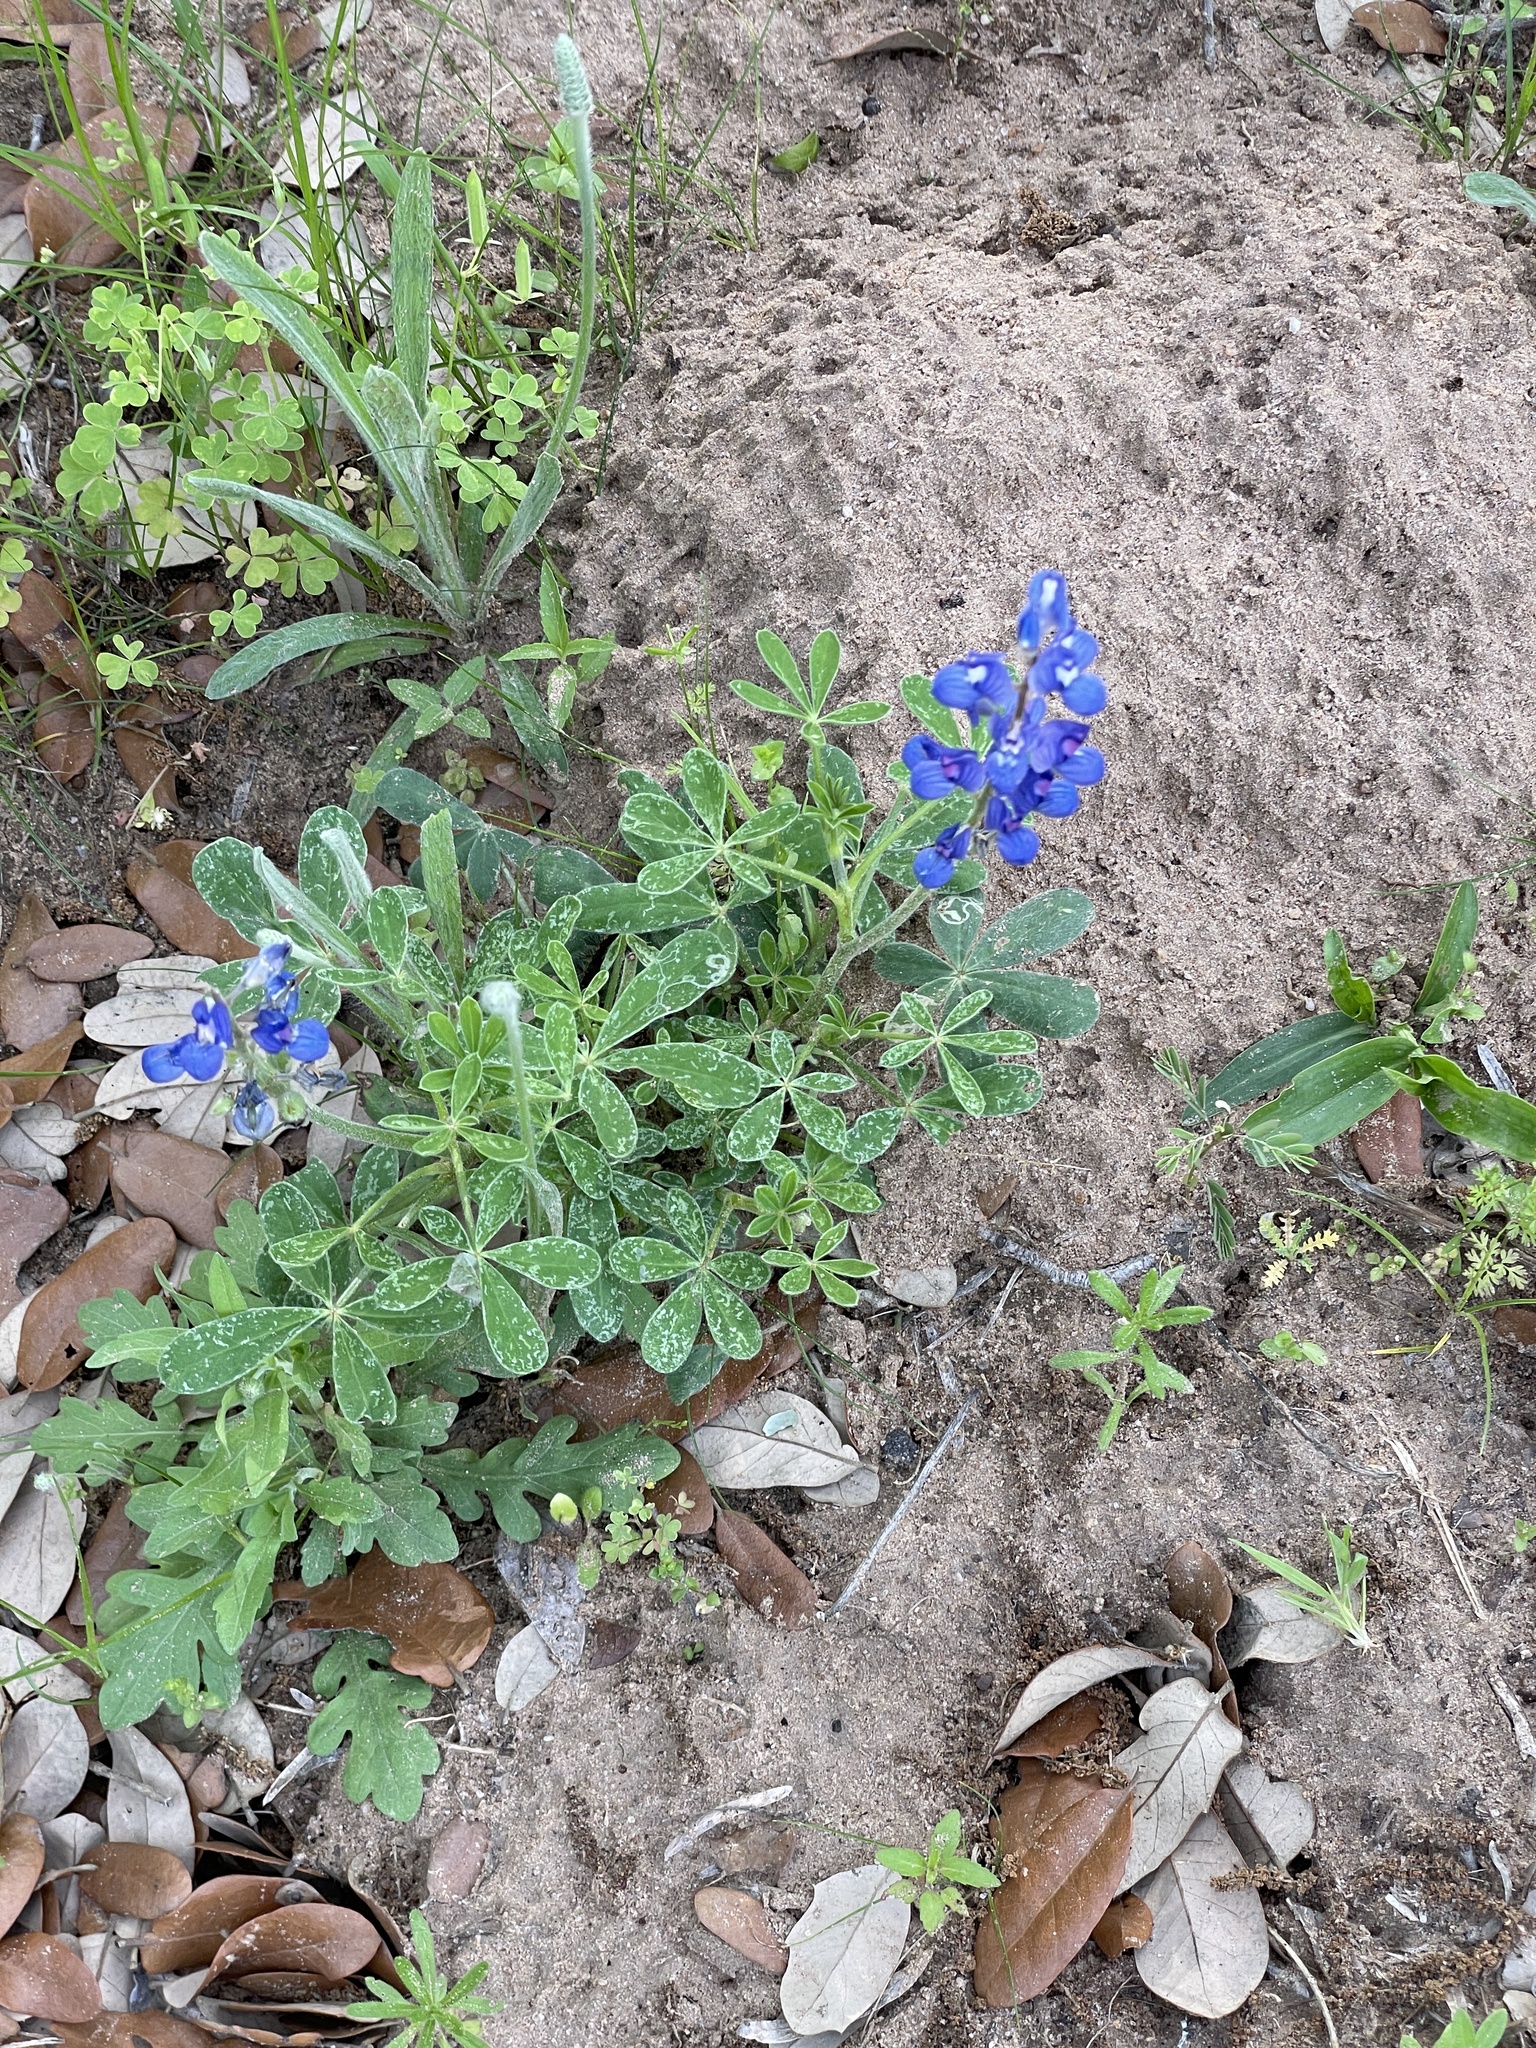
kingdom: Plantae
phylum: Tracheophyta
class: Magnoliopsida
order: Fabales
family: Fabaceae
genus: Lupinus
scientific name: Lupinus subcarnosus
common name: Texas bluebonnet
